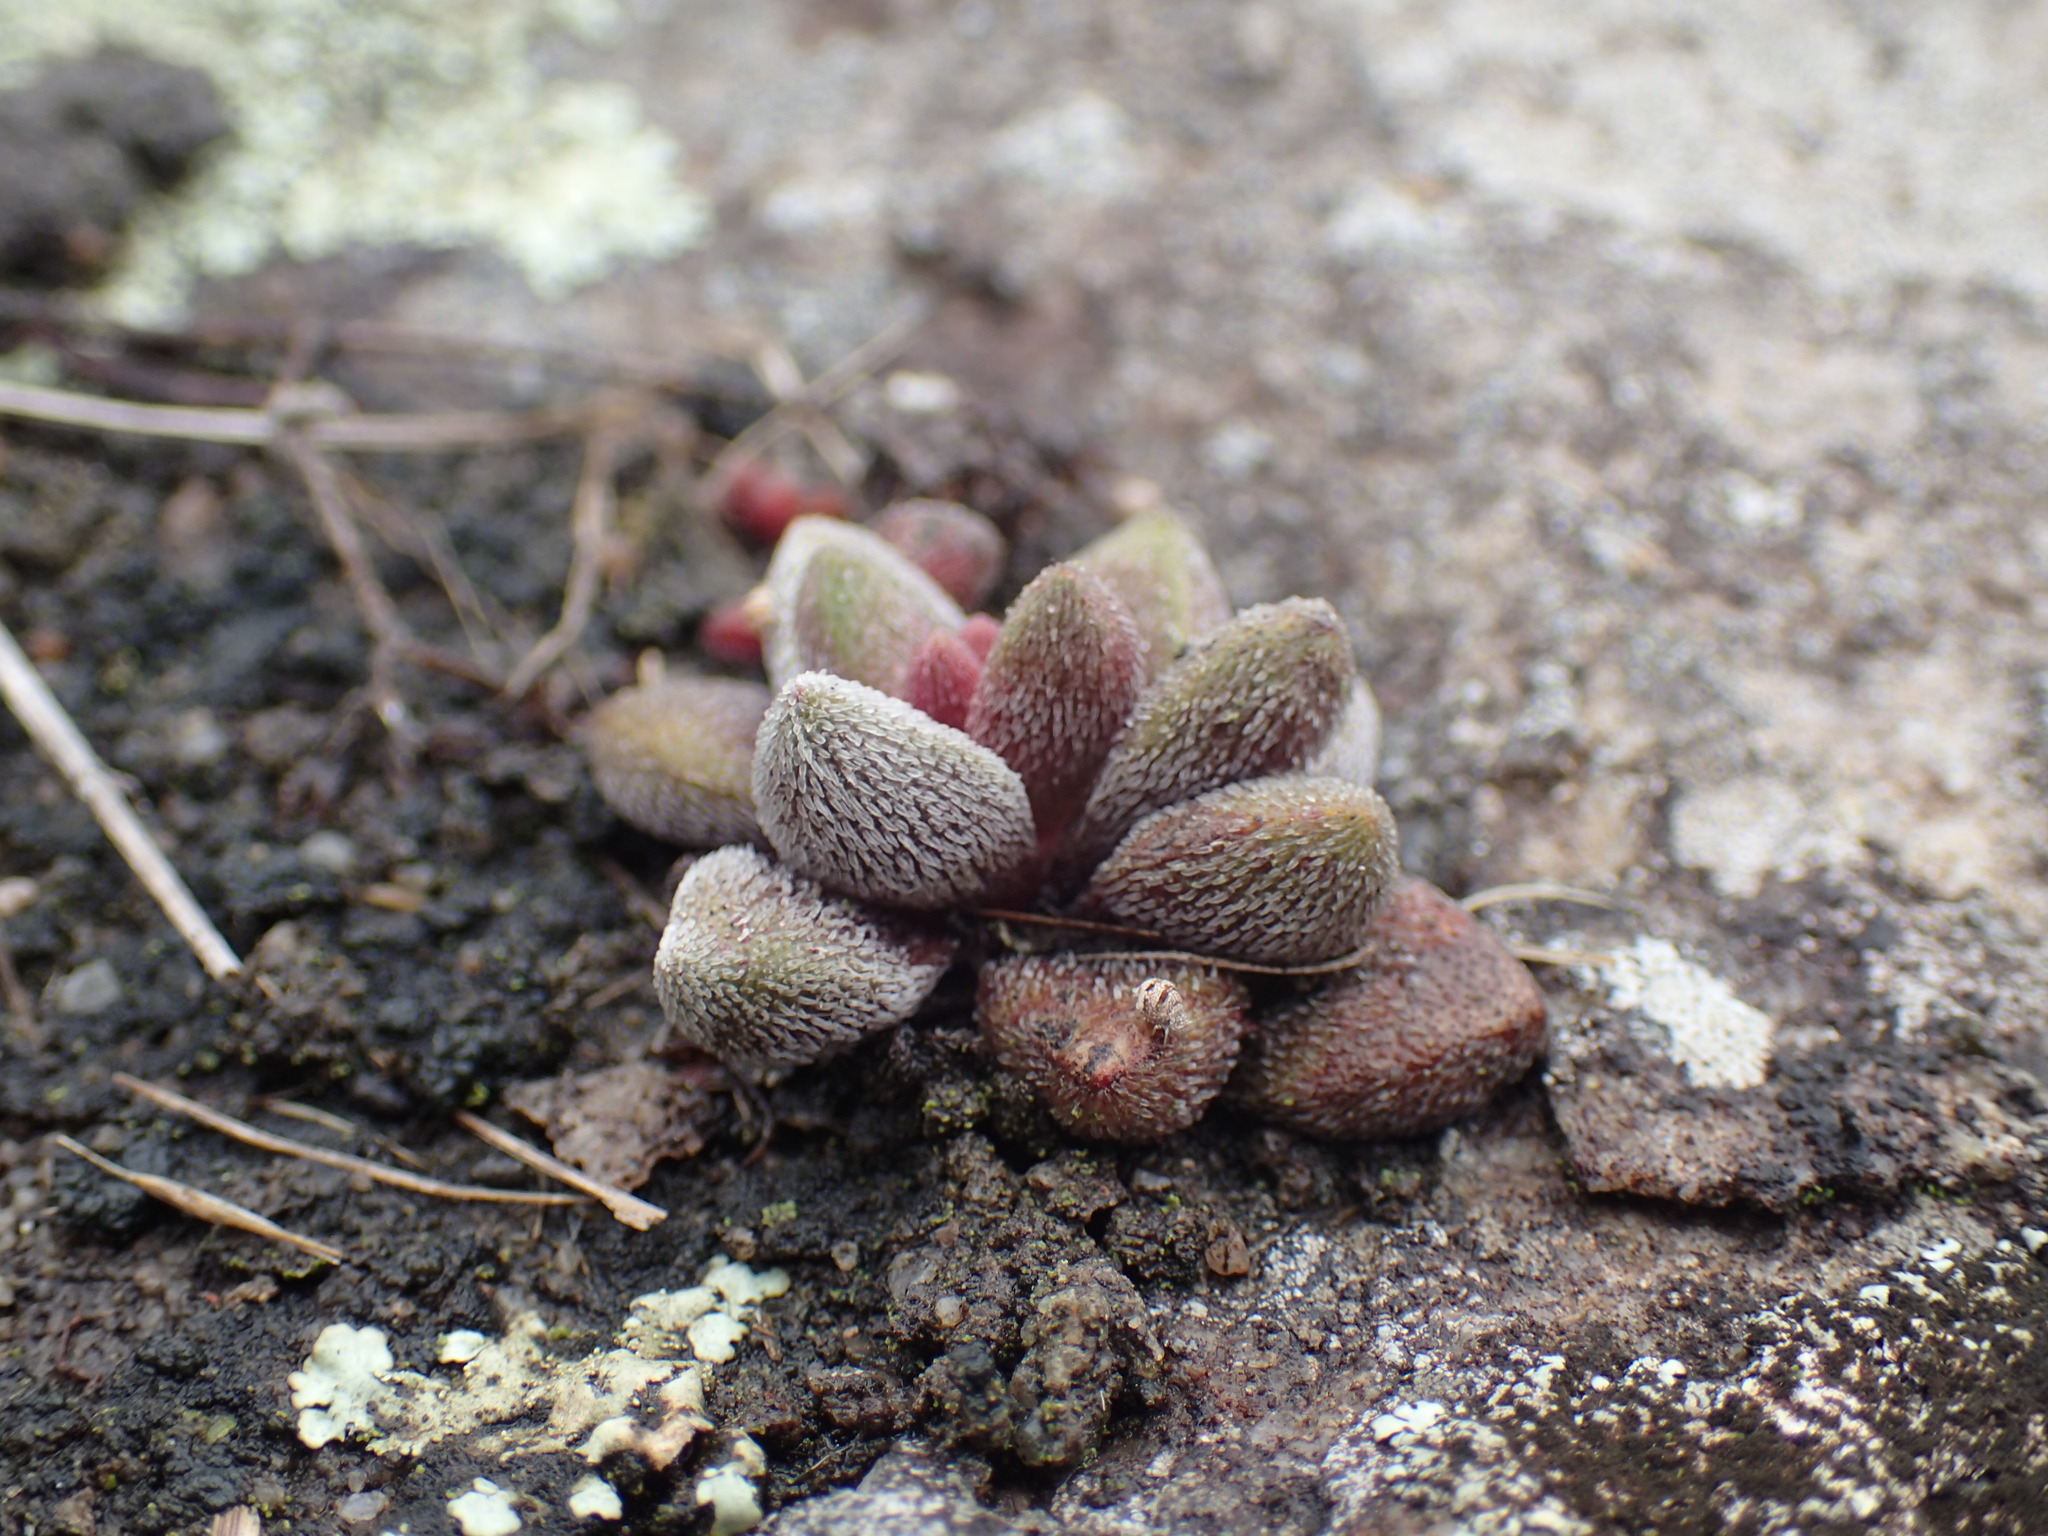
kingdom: Plantae
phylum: Tracheophyta
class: Magnoliopsida
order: Saxifragales
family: Crassulaceae
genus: Crassula
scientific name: Crassula obovata
